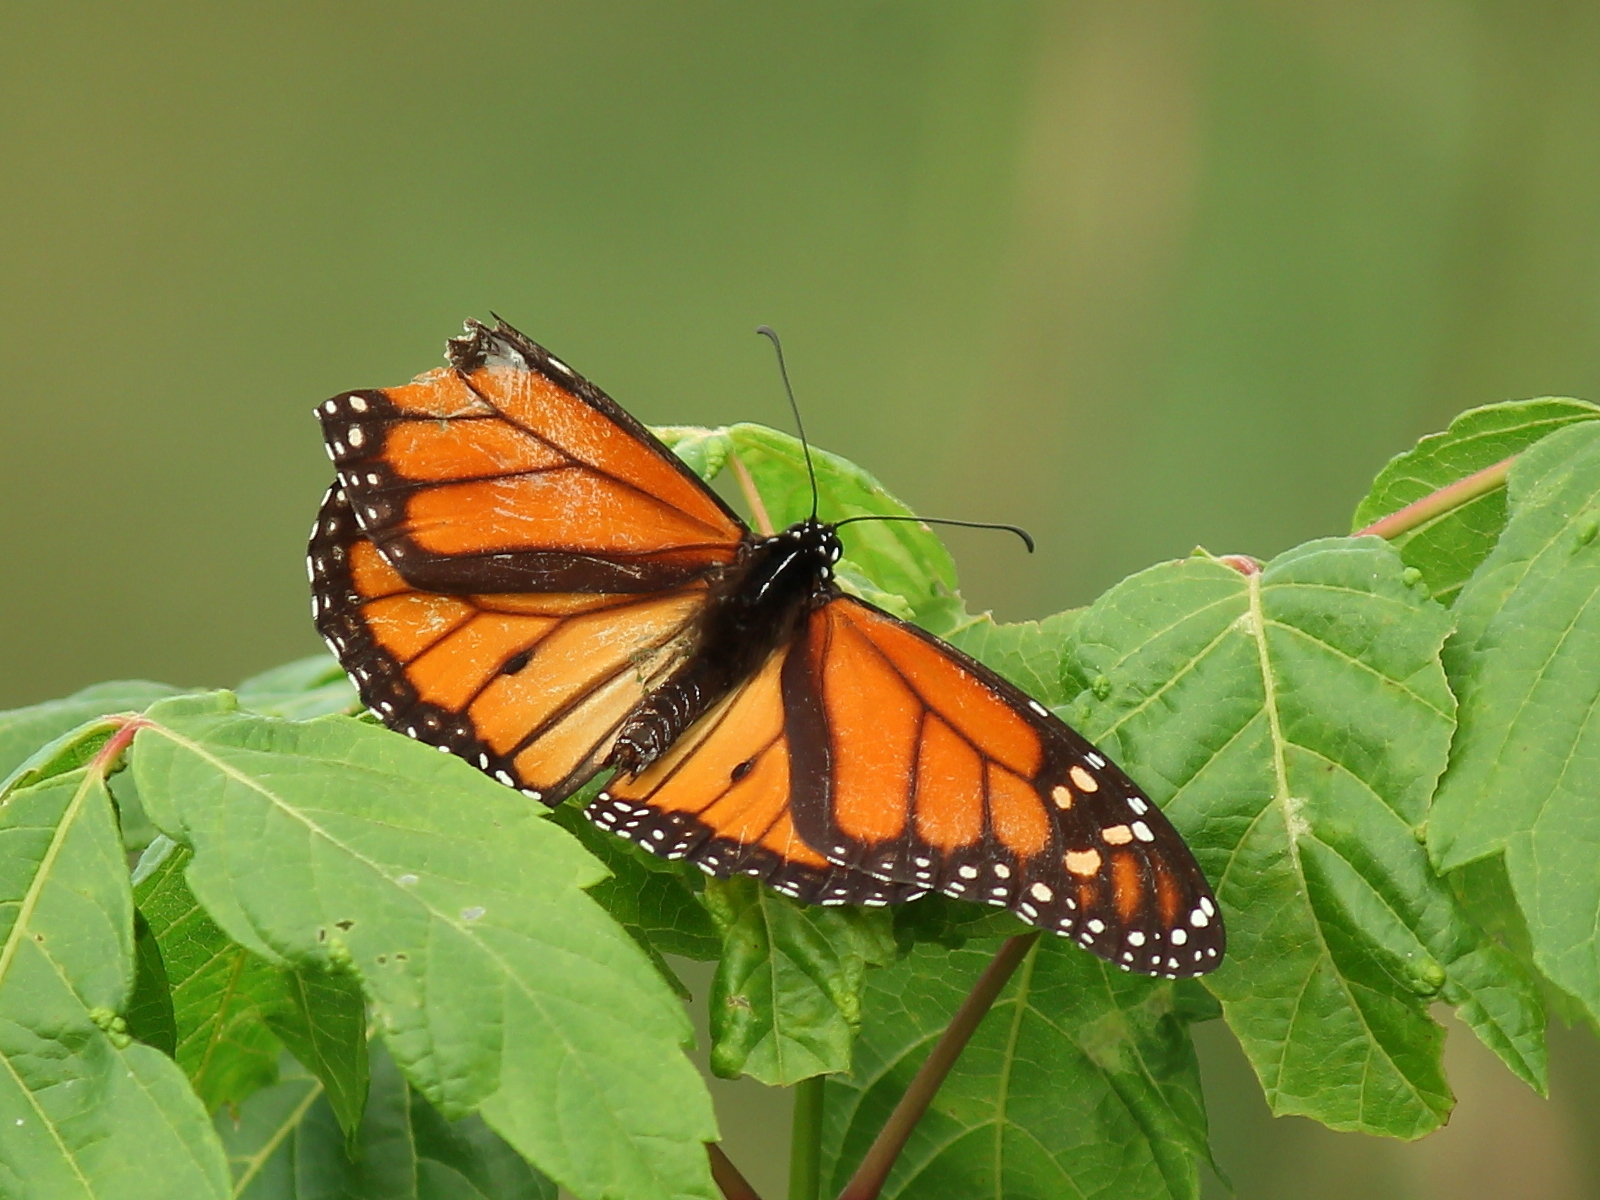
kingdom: Animalia
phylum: Arthropoda
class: Insecta
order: Lepidoptera
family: Nymphalidae
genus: Danaus
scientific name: Danaus plexippus
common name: Monarch
